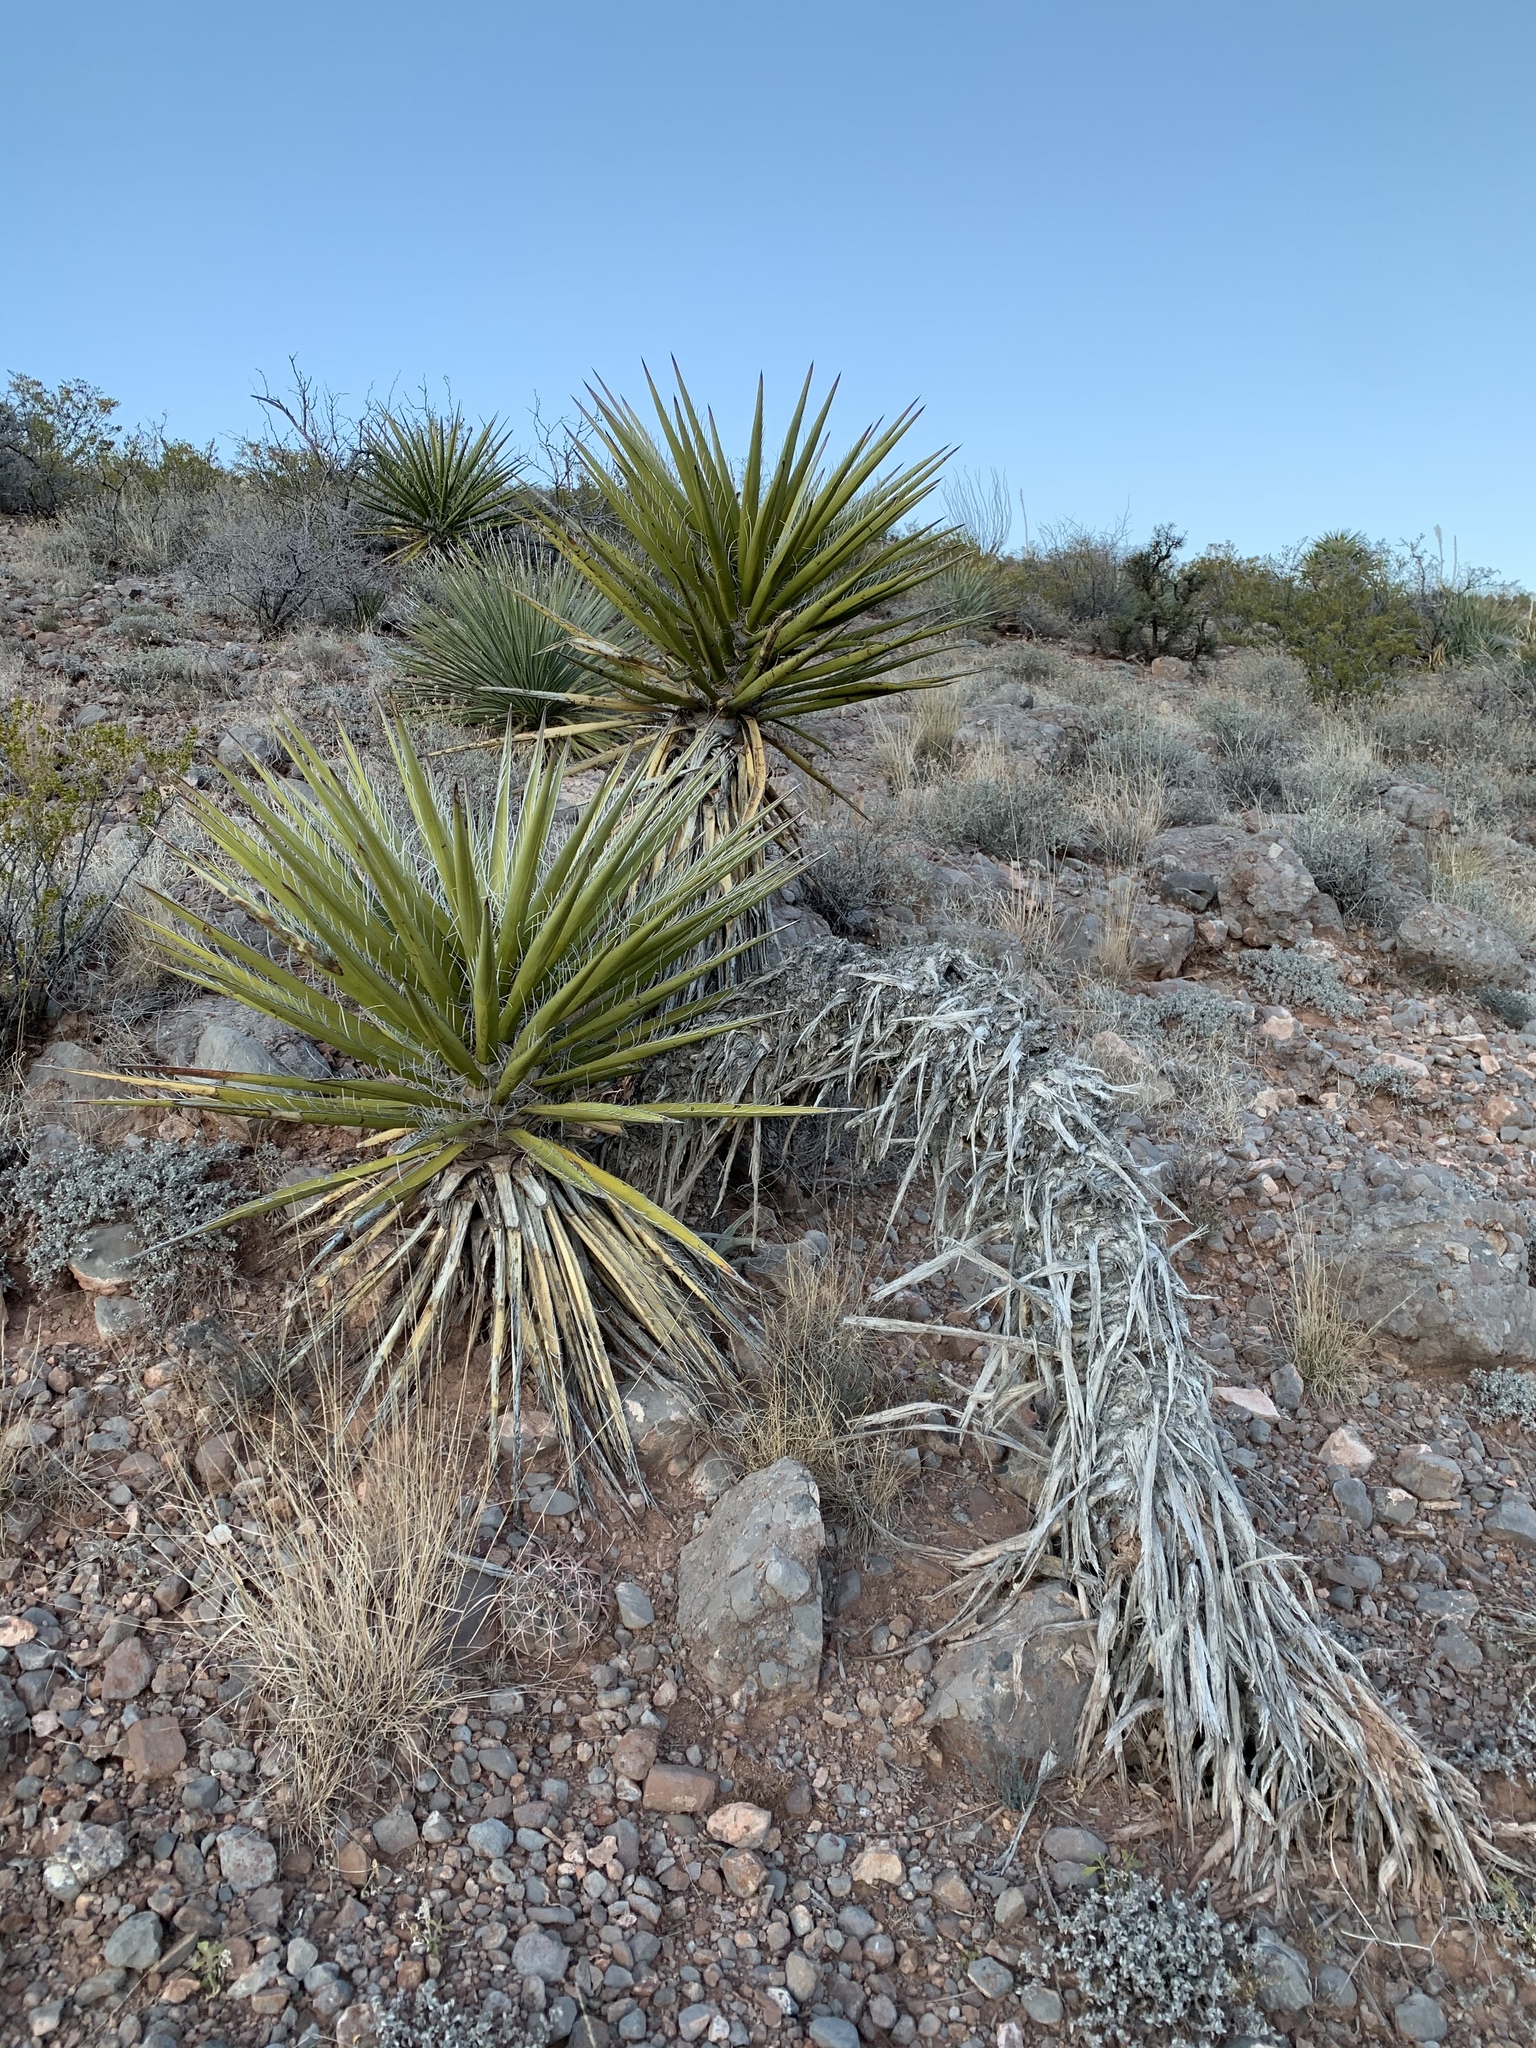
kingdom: Plantae
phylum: Tracheophyta
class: Liliopsida
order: Asparagales
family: Asparagaceae
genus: Yucca
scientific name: Yucca treculiana
